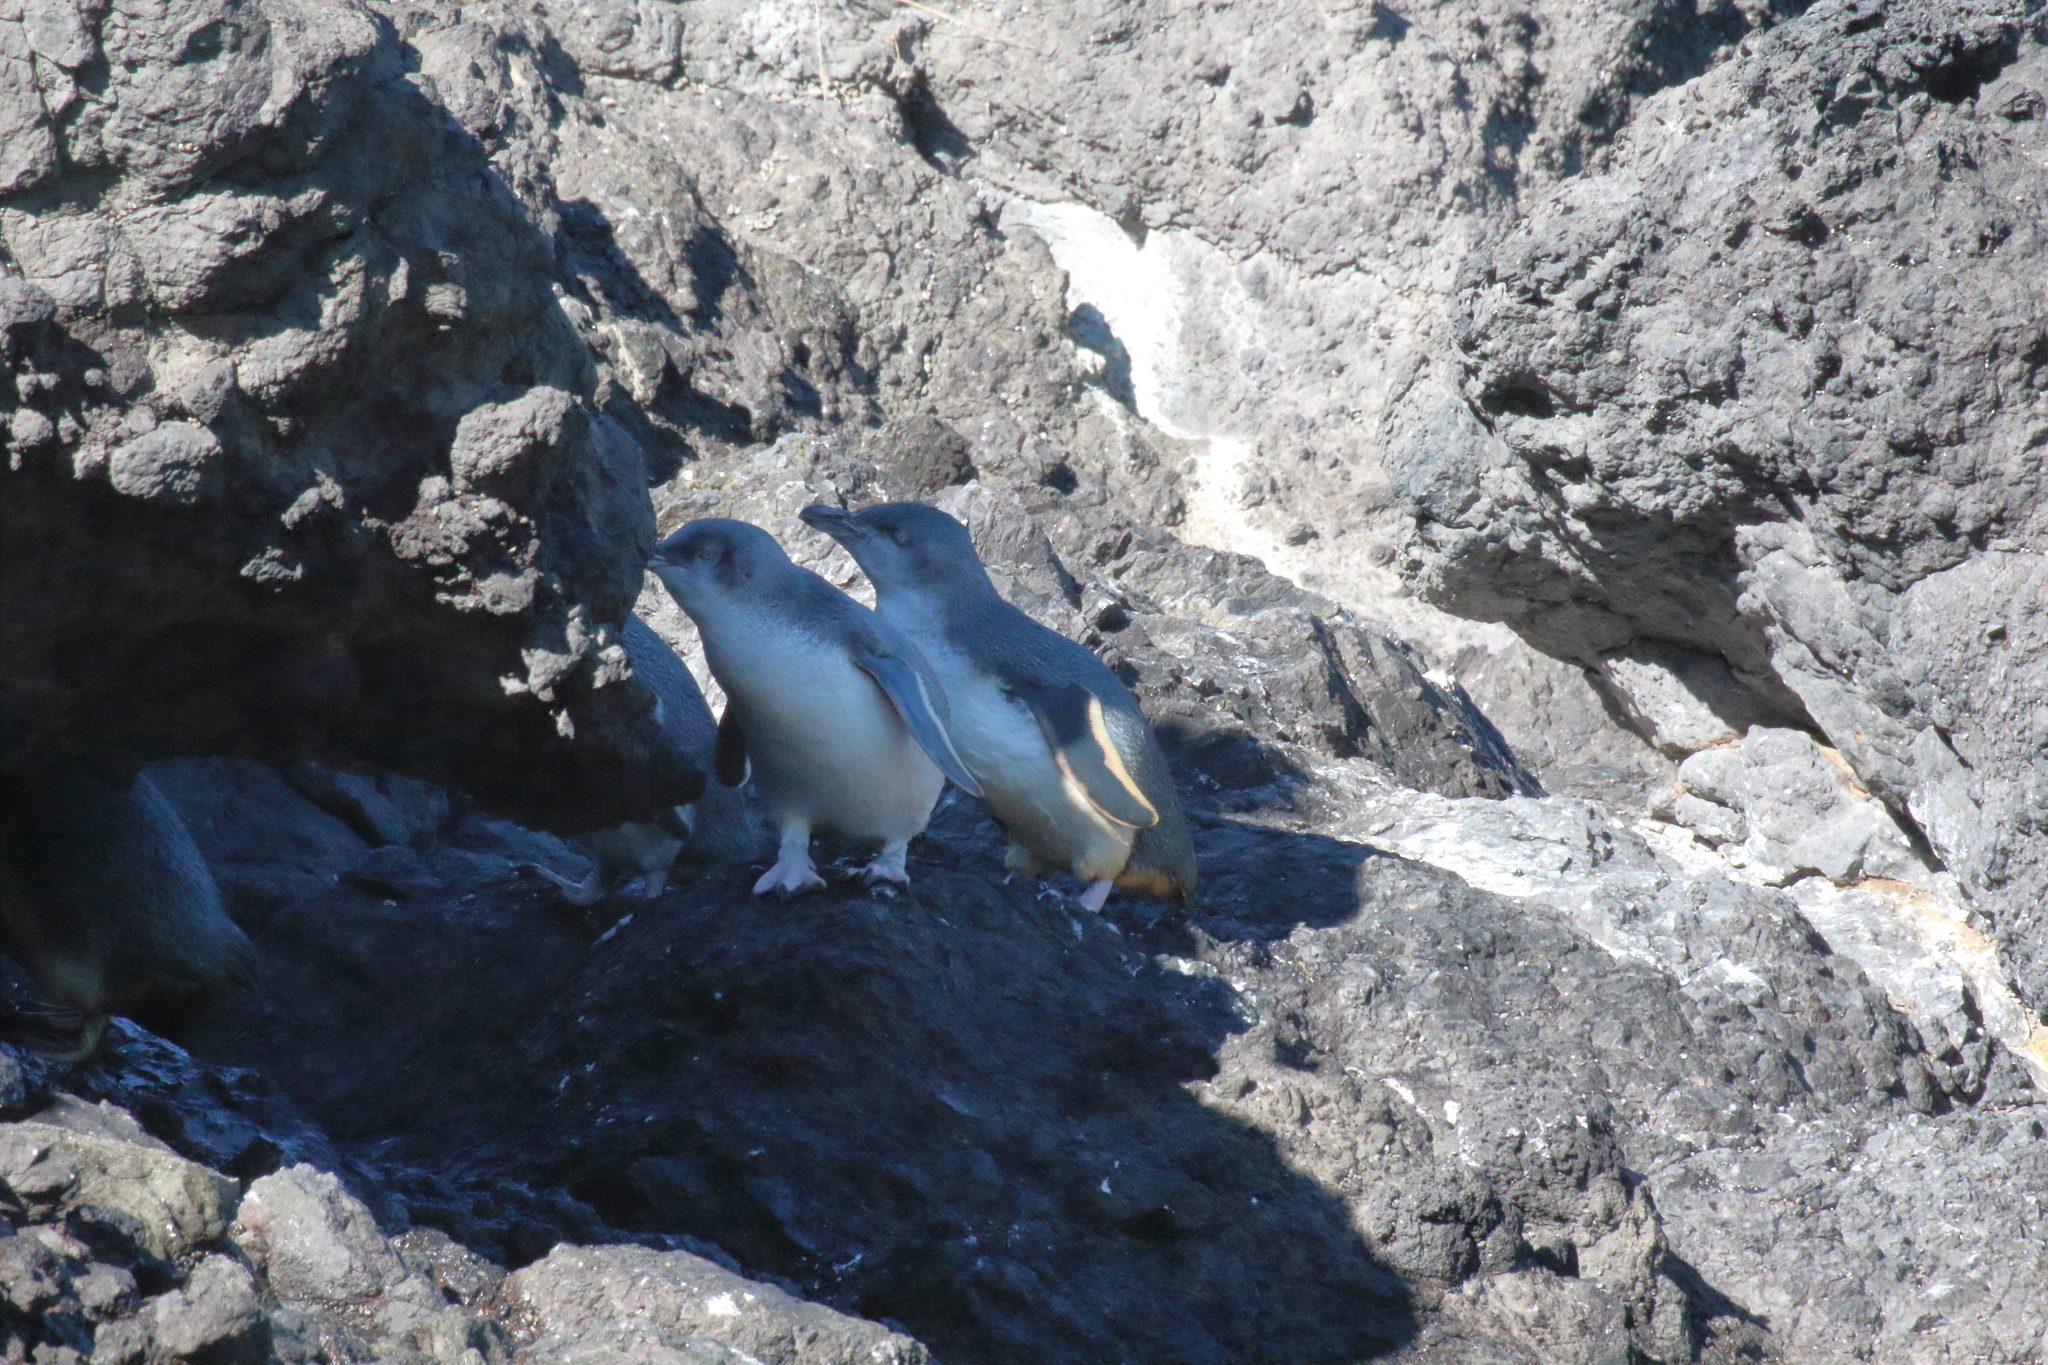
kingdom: Animalia
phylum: Chordata
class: Aves
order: Sphenisciformes
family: Spheniscidae
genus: Eudyptula
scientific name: Eudyptula minor
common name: Little penguin
